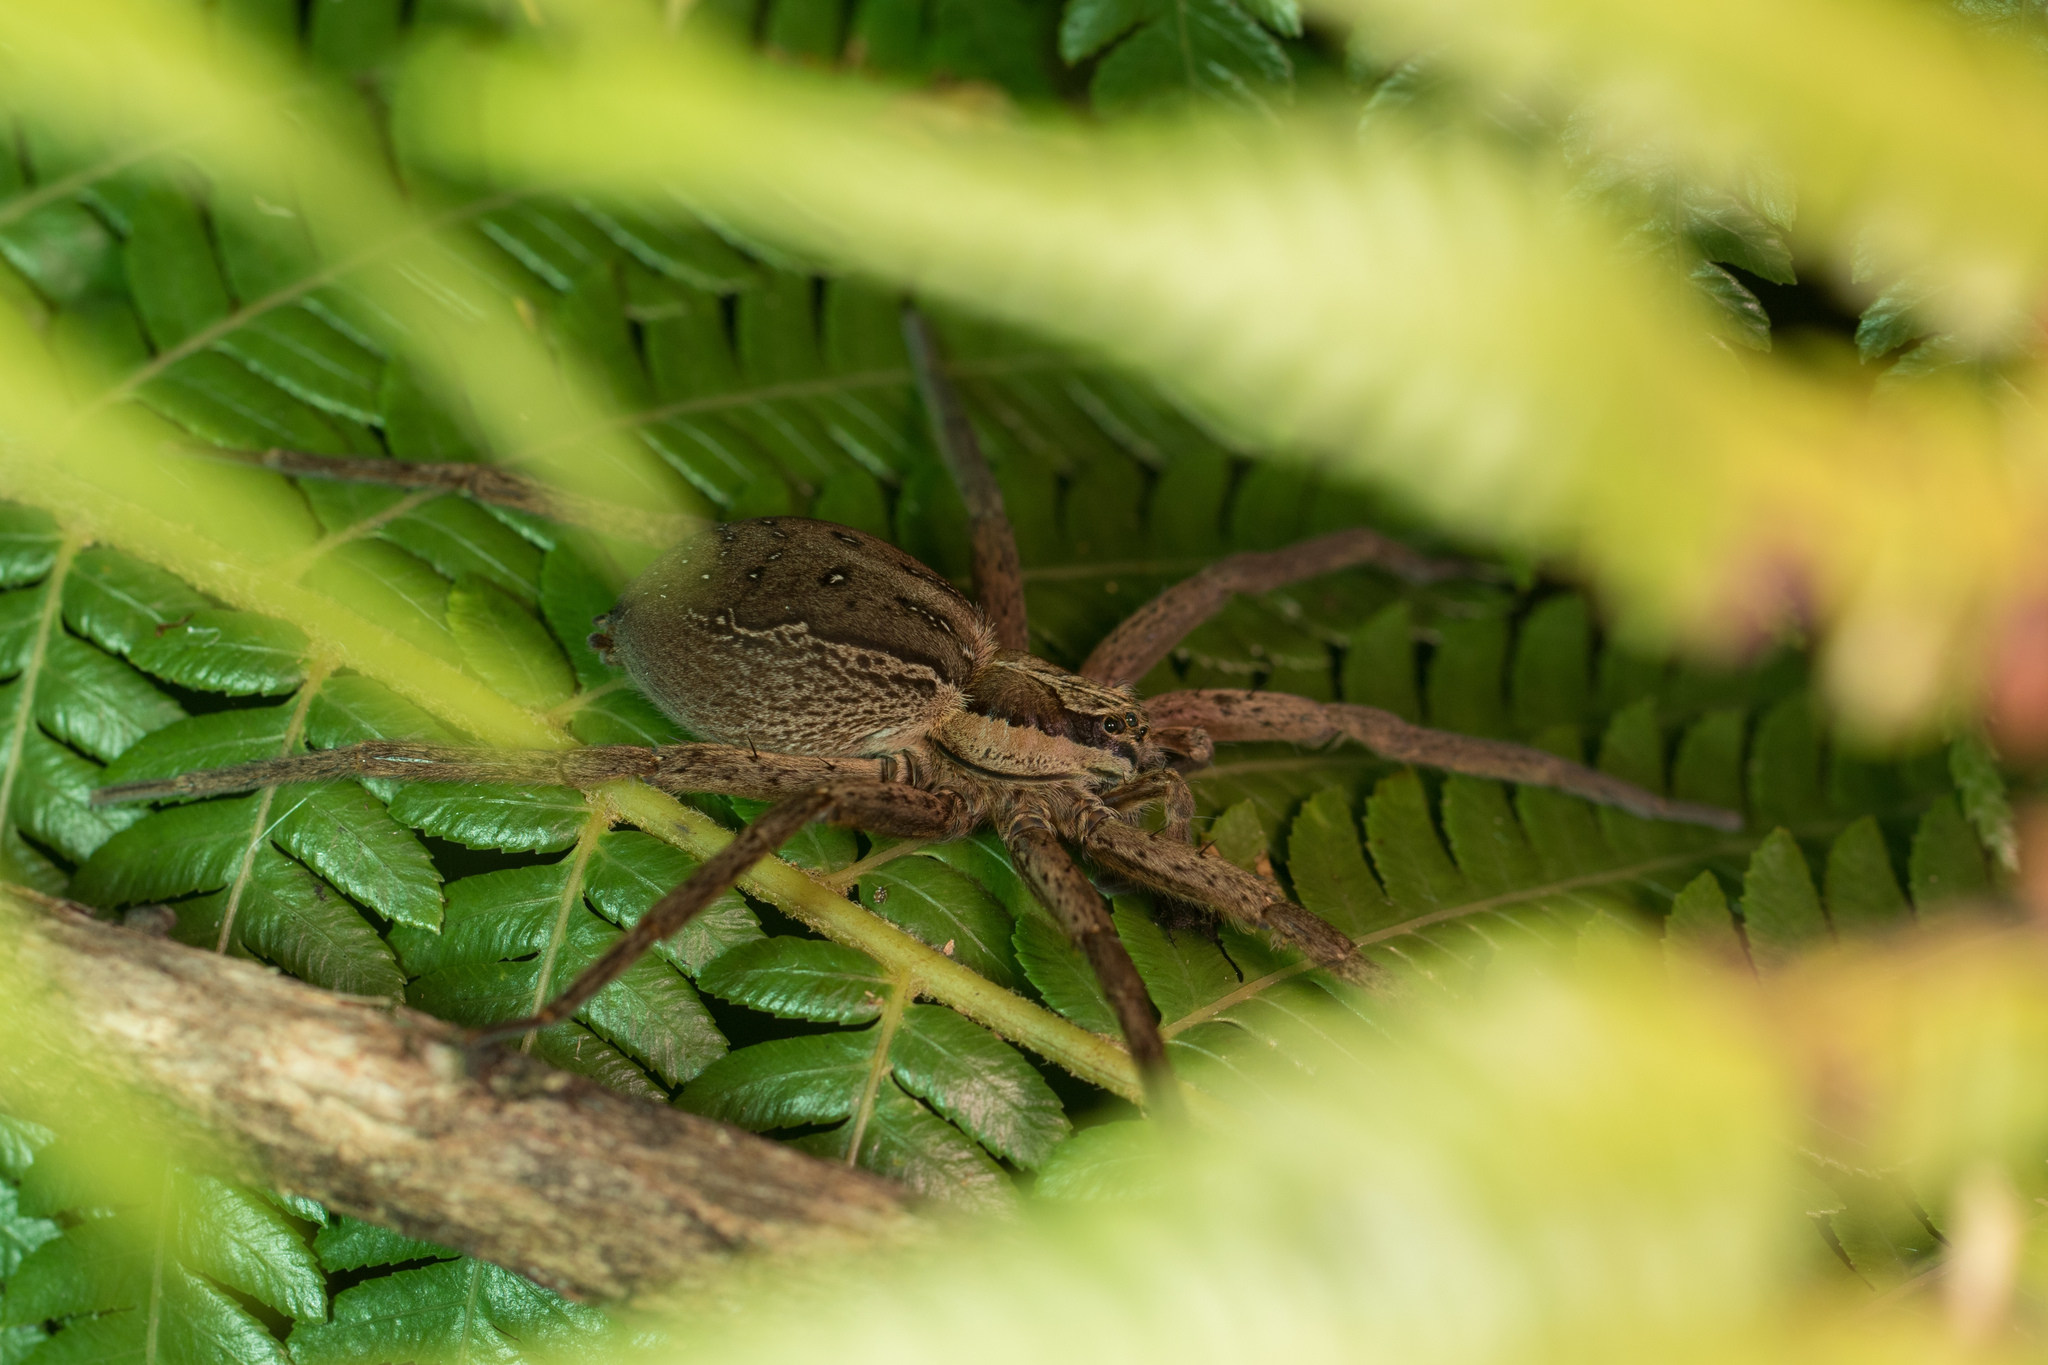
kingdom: Animalia
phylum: Arthropoda
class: Arachnida
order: Araneae
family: Pisauridae
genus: Dolomedes
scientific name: Dolomedes minor
